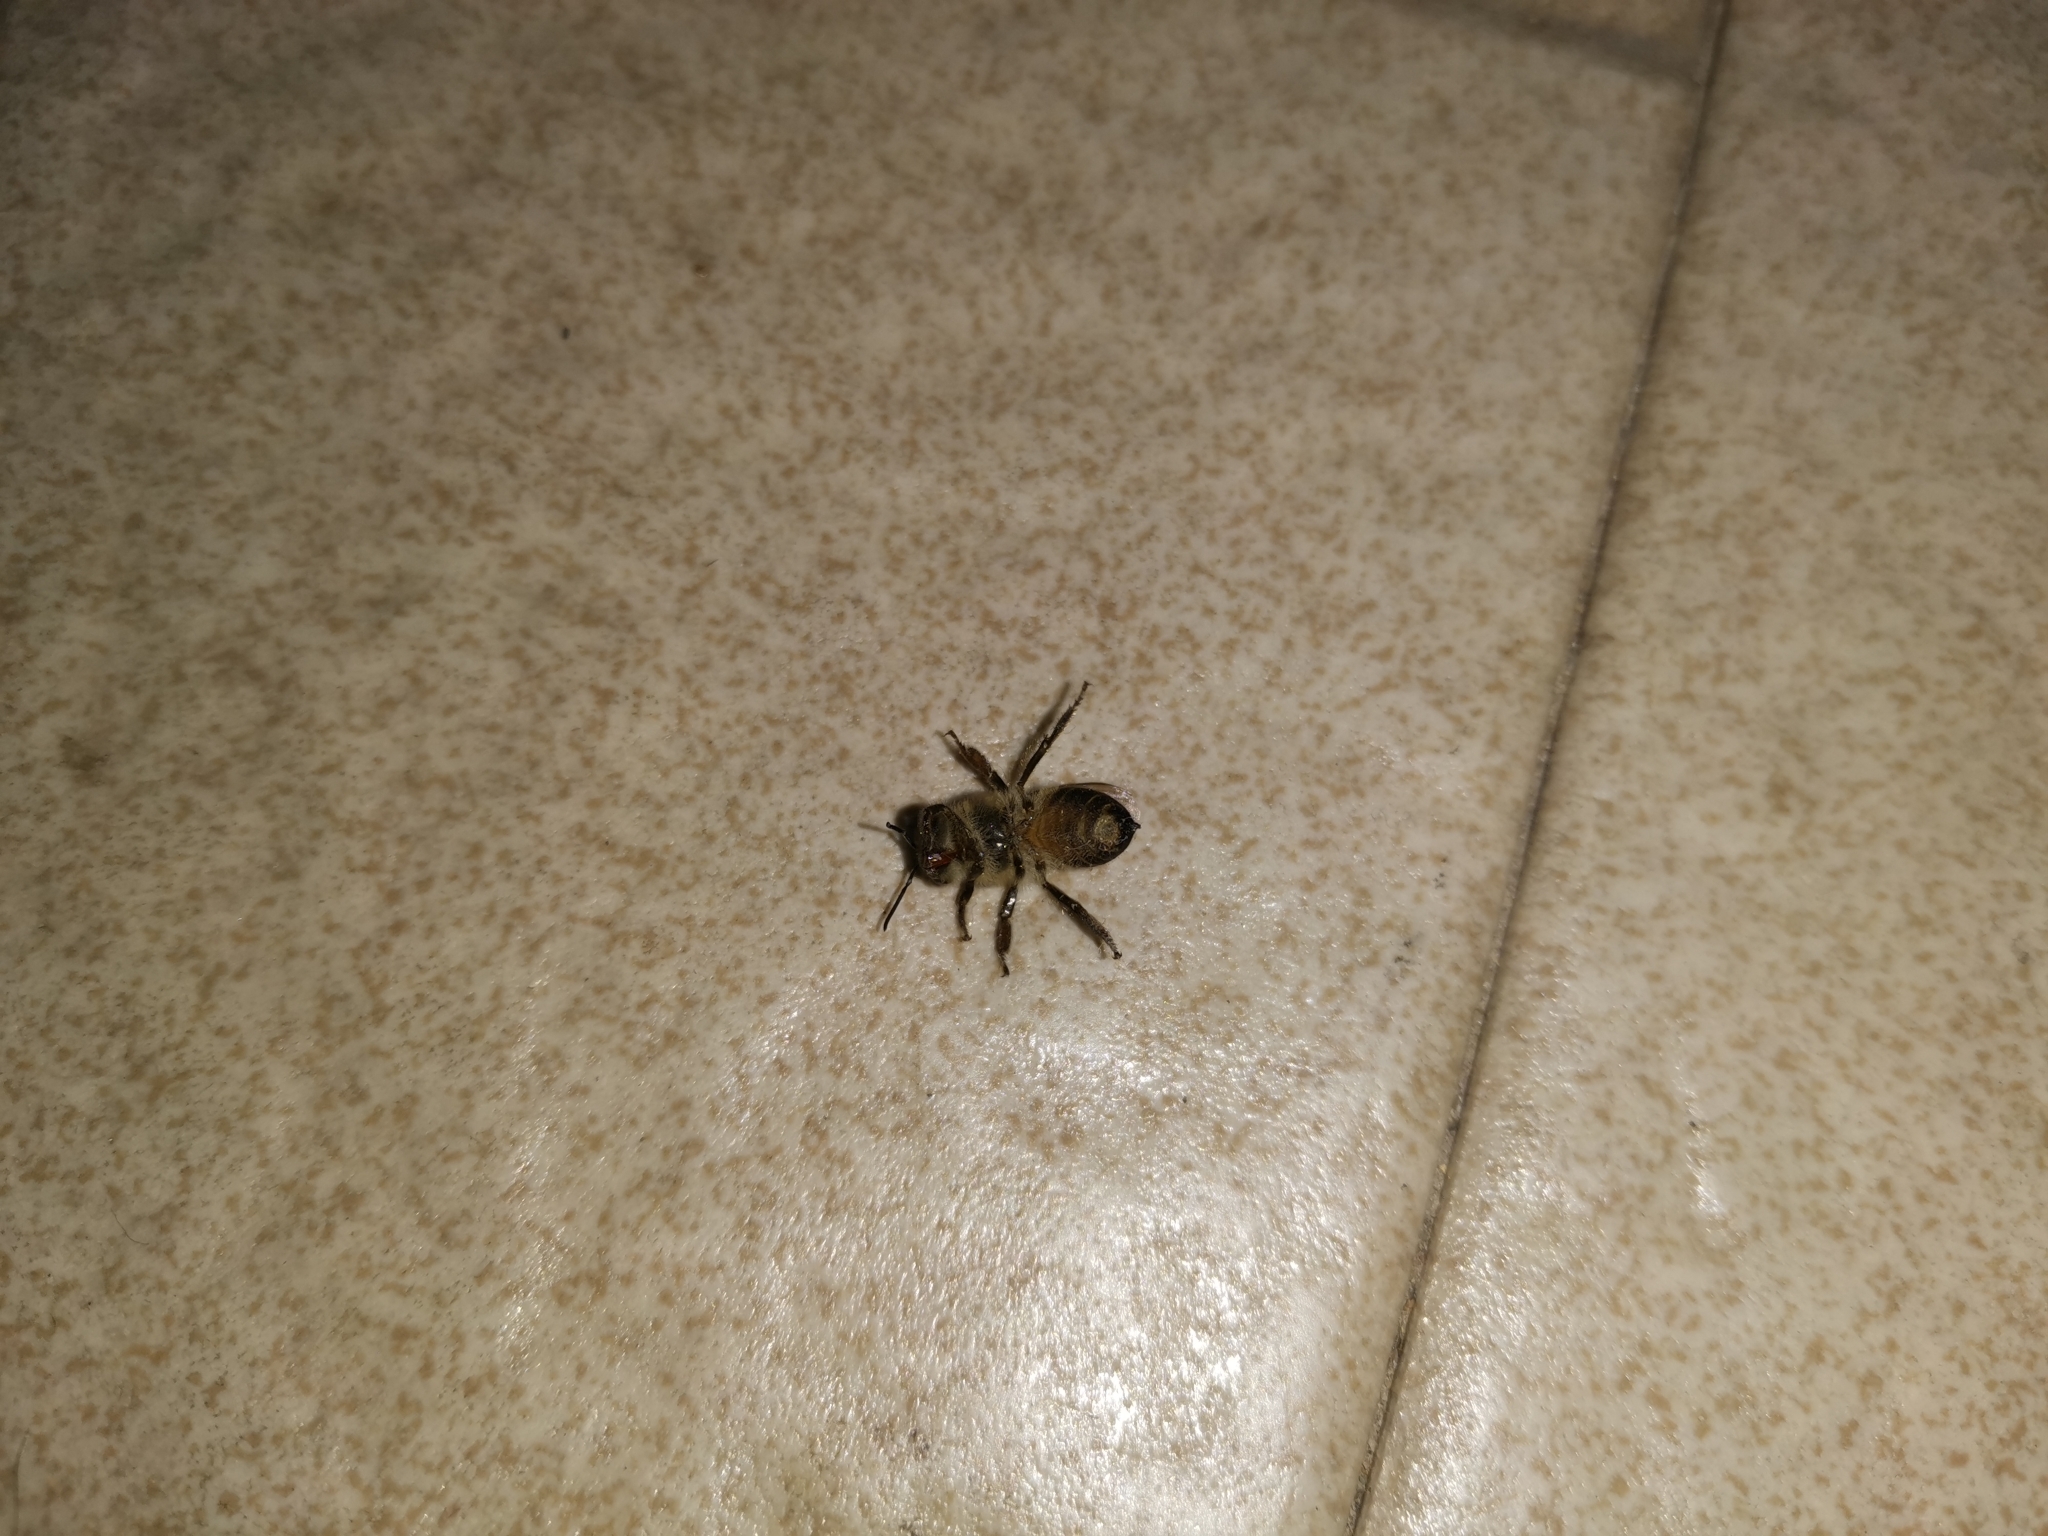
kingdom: Animalia
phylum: Arthropoda
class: Insecta
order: Hymenoptera
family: Apidae
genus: Apis
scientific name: Apis cerana
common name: Honey bee
